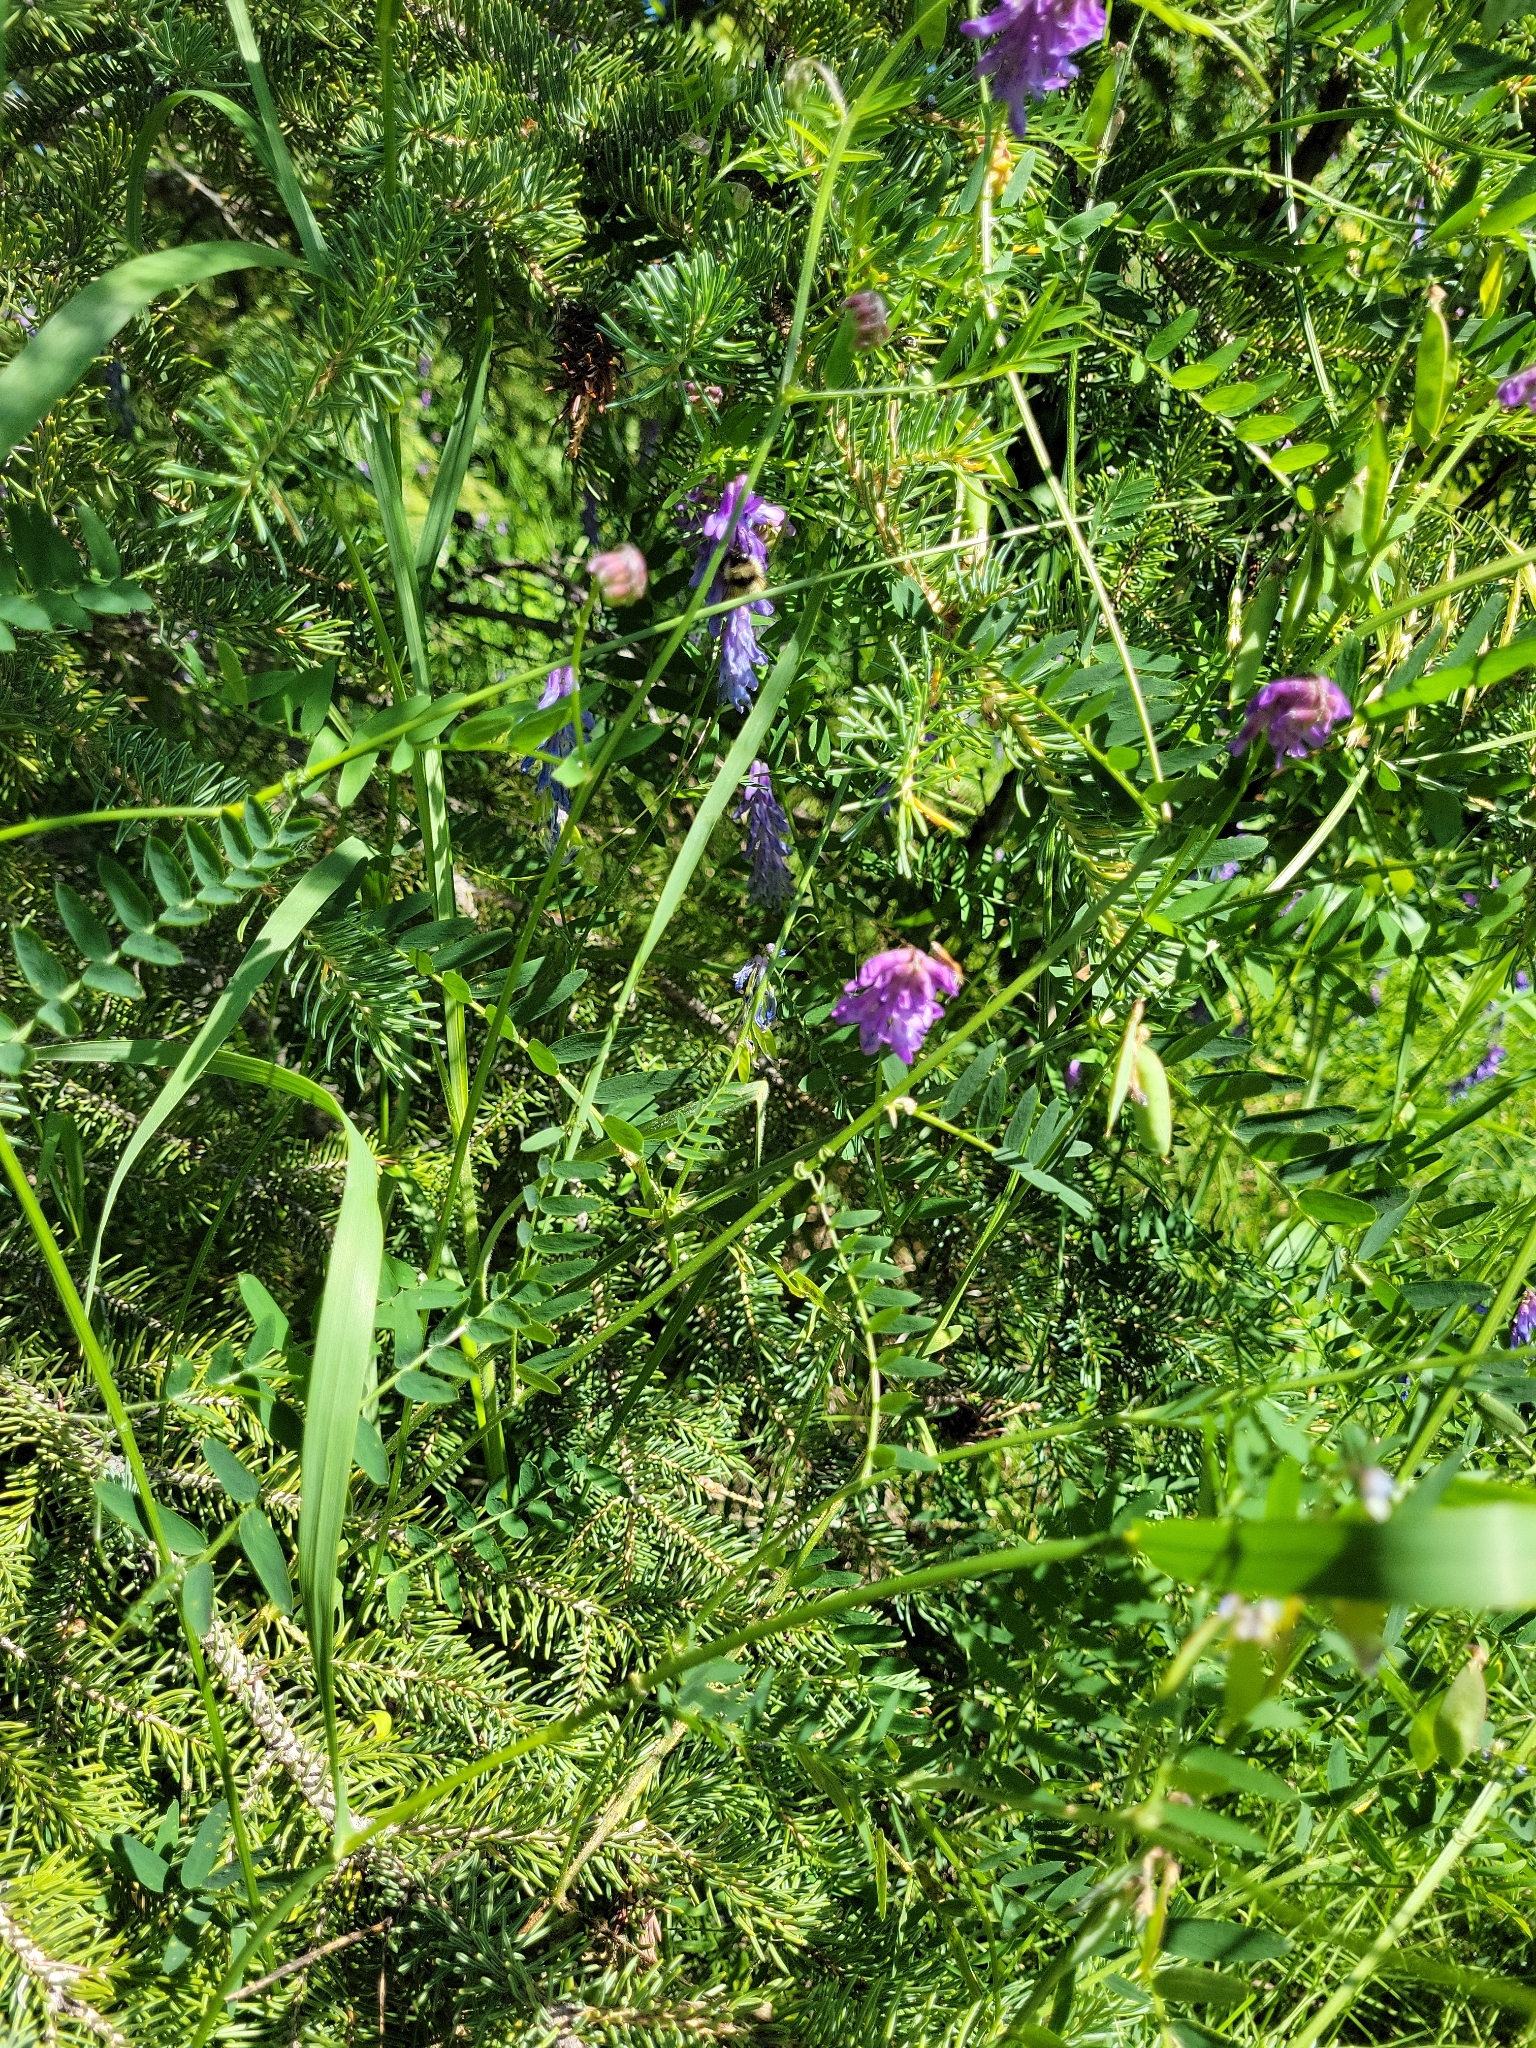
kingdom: Plantae
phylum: Tracheophyta
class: Magnoliopsida
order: Fabales
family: Fabaceae
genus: Vicia
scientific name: Vicia cracca
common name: Bird vetch
